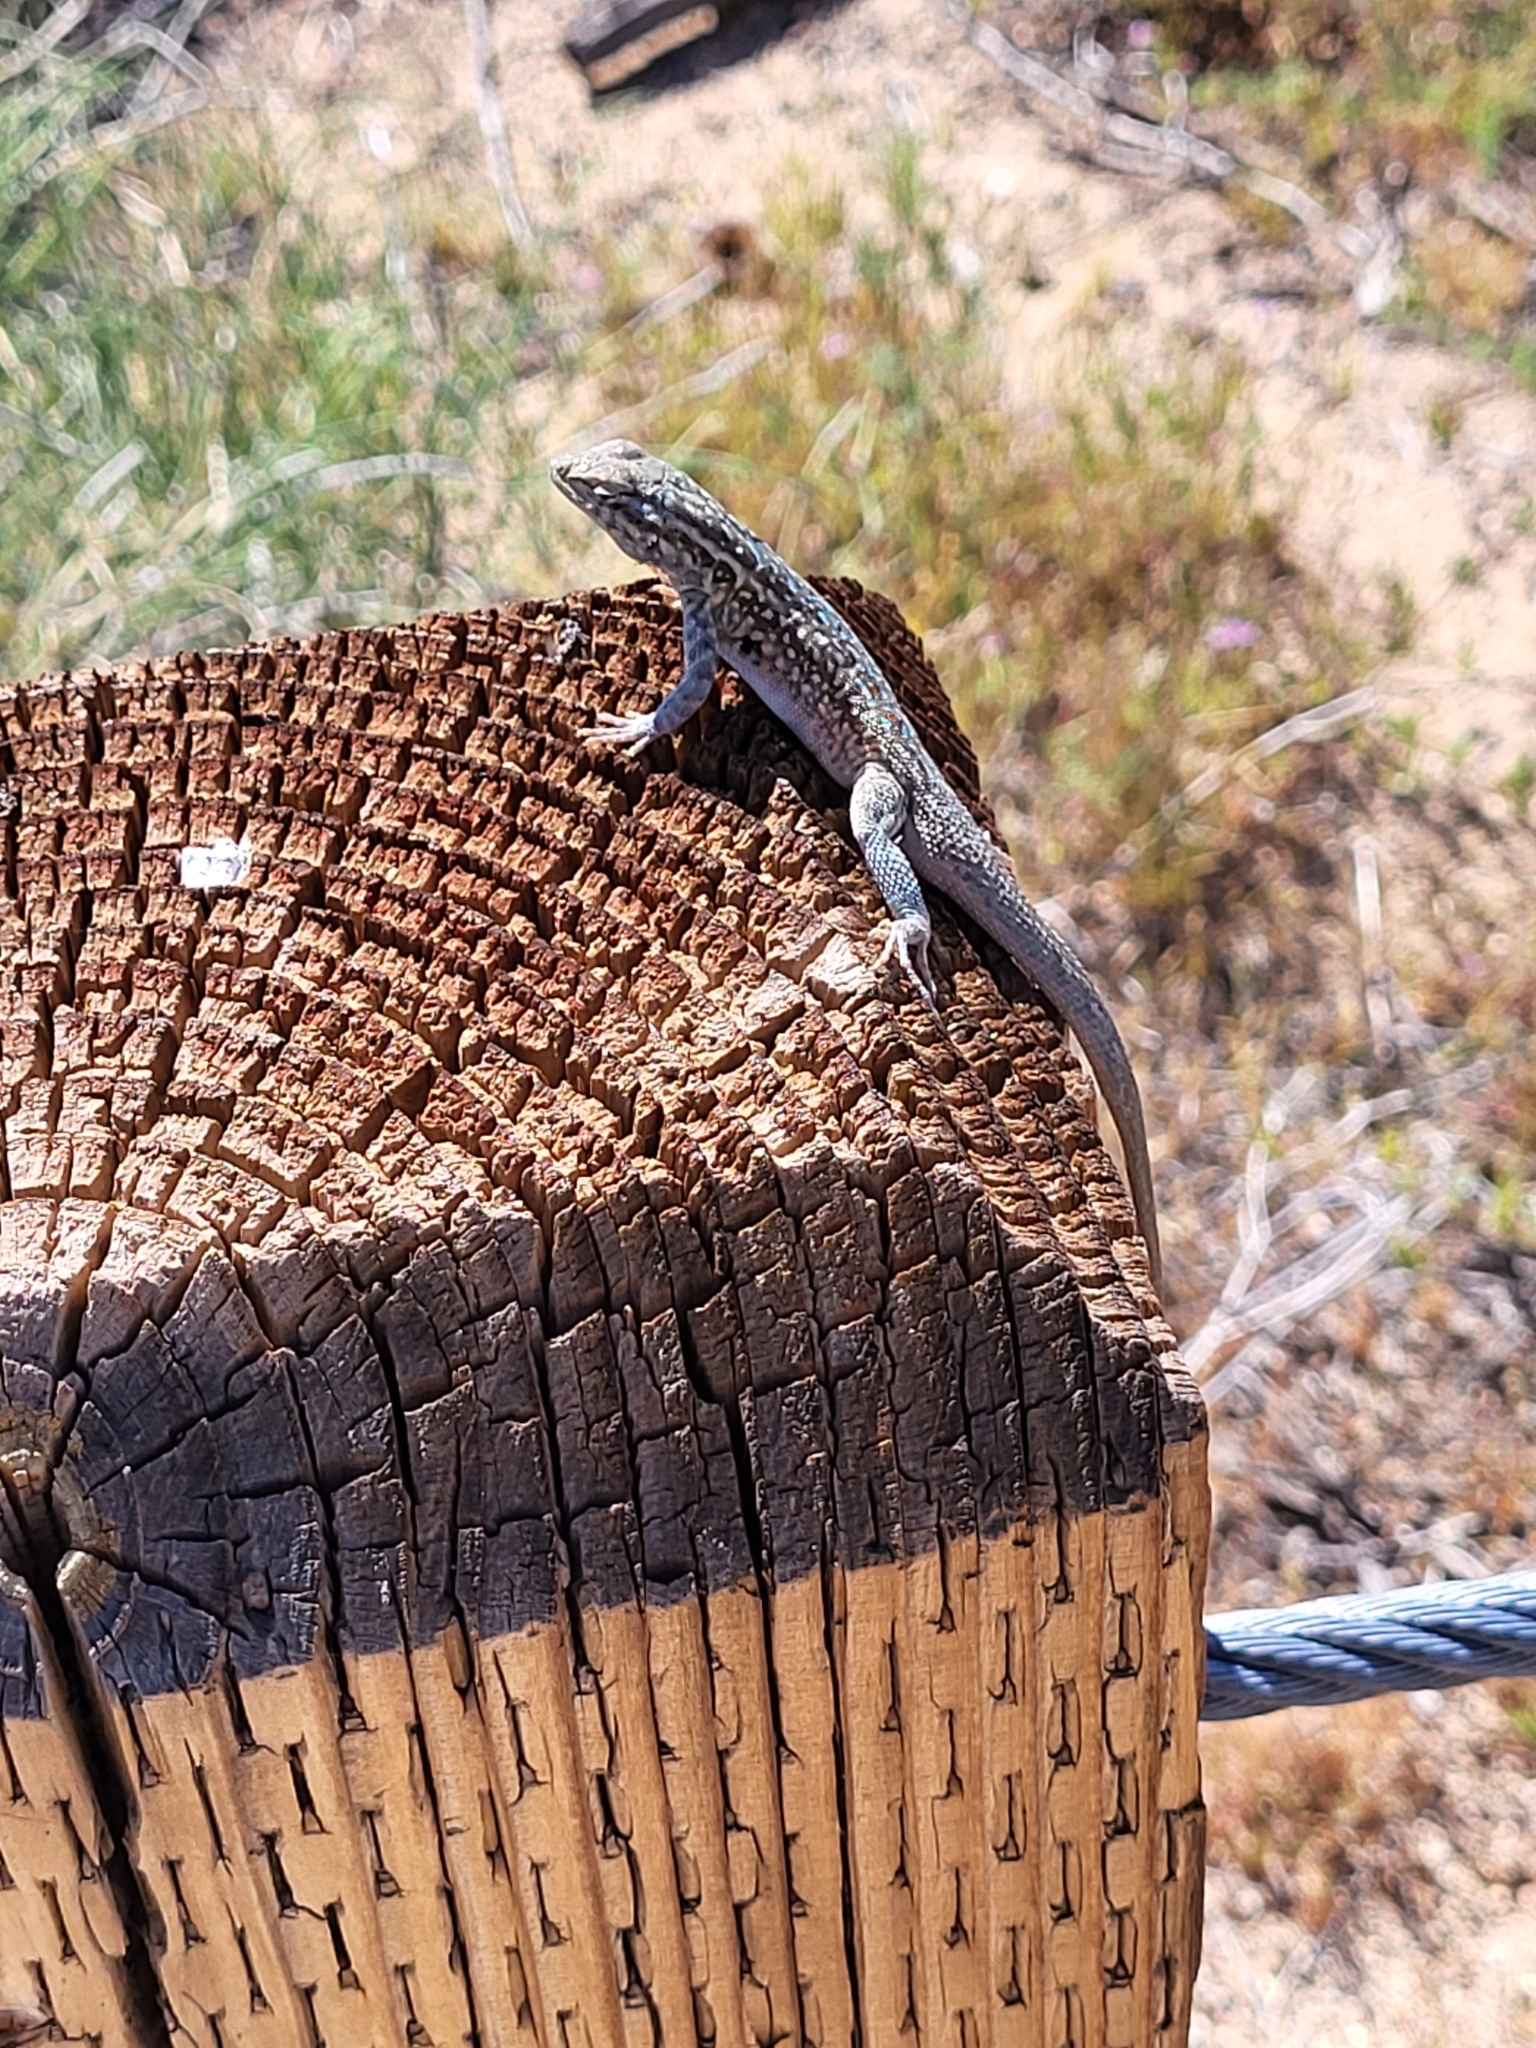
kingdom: Animalia
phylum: Chordata
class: Squamata
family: Phrynosomatidae
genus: Uta
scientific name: Uta stansburiana
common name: Side-blotched lizard
